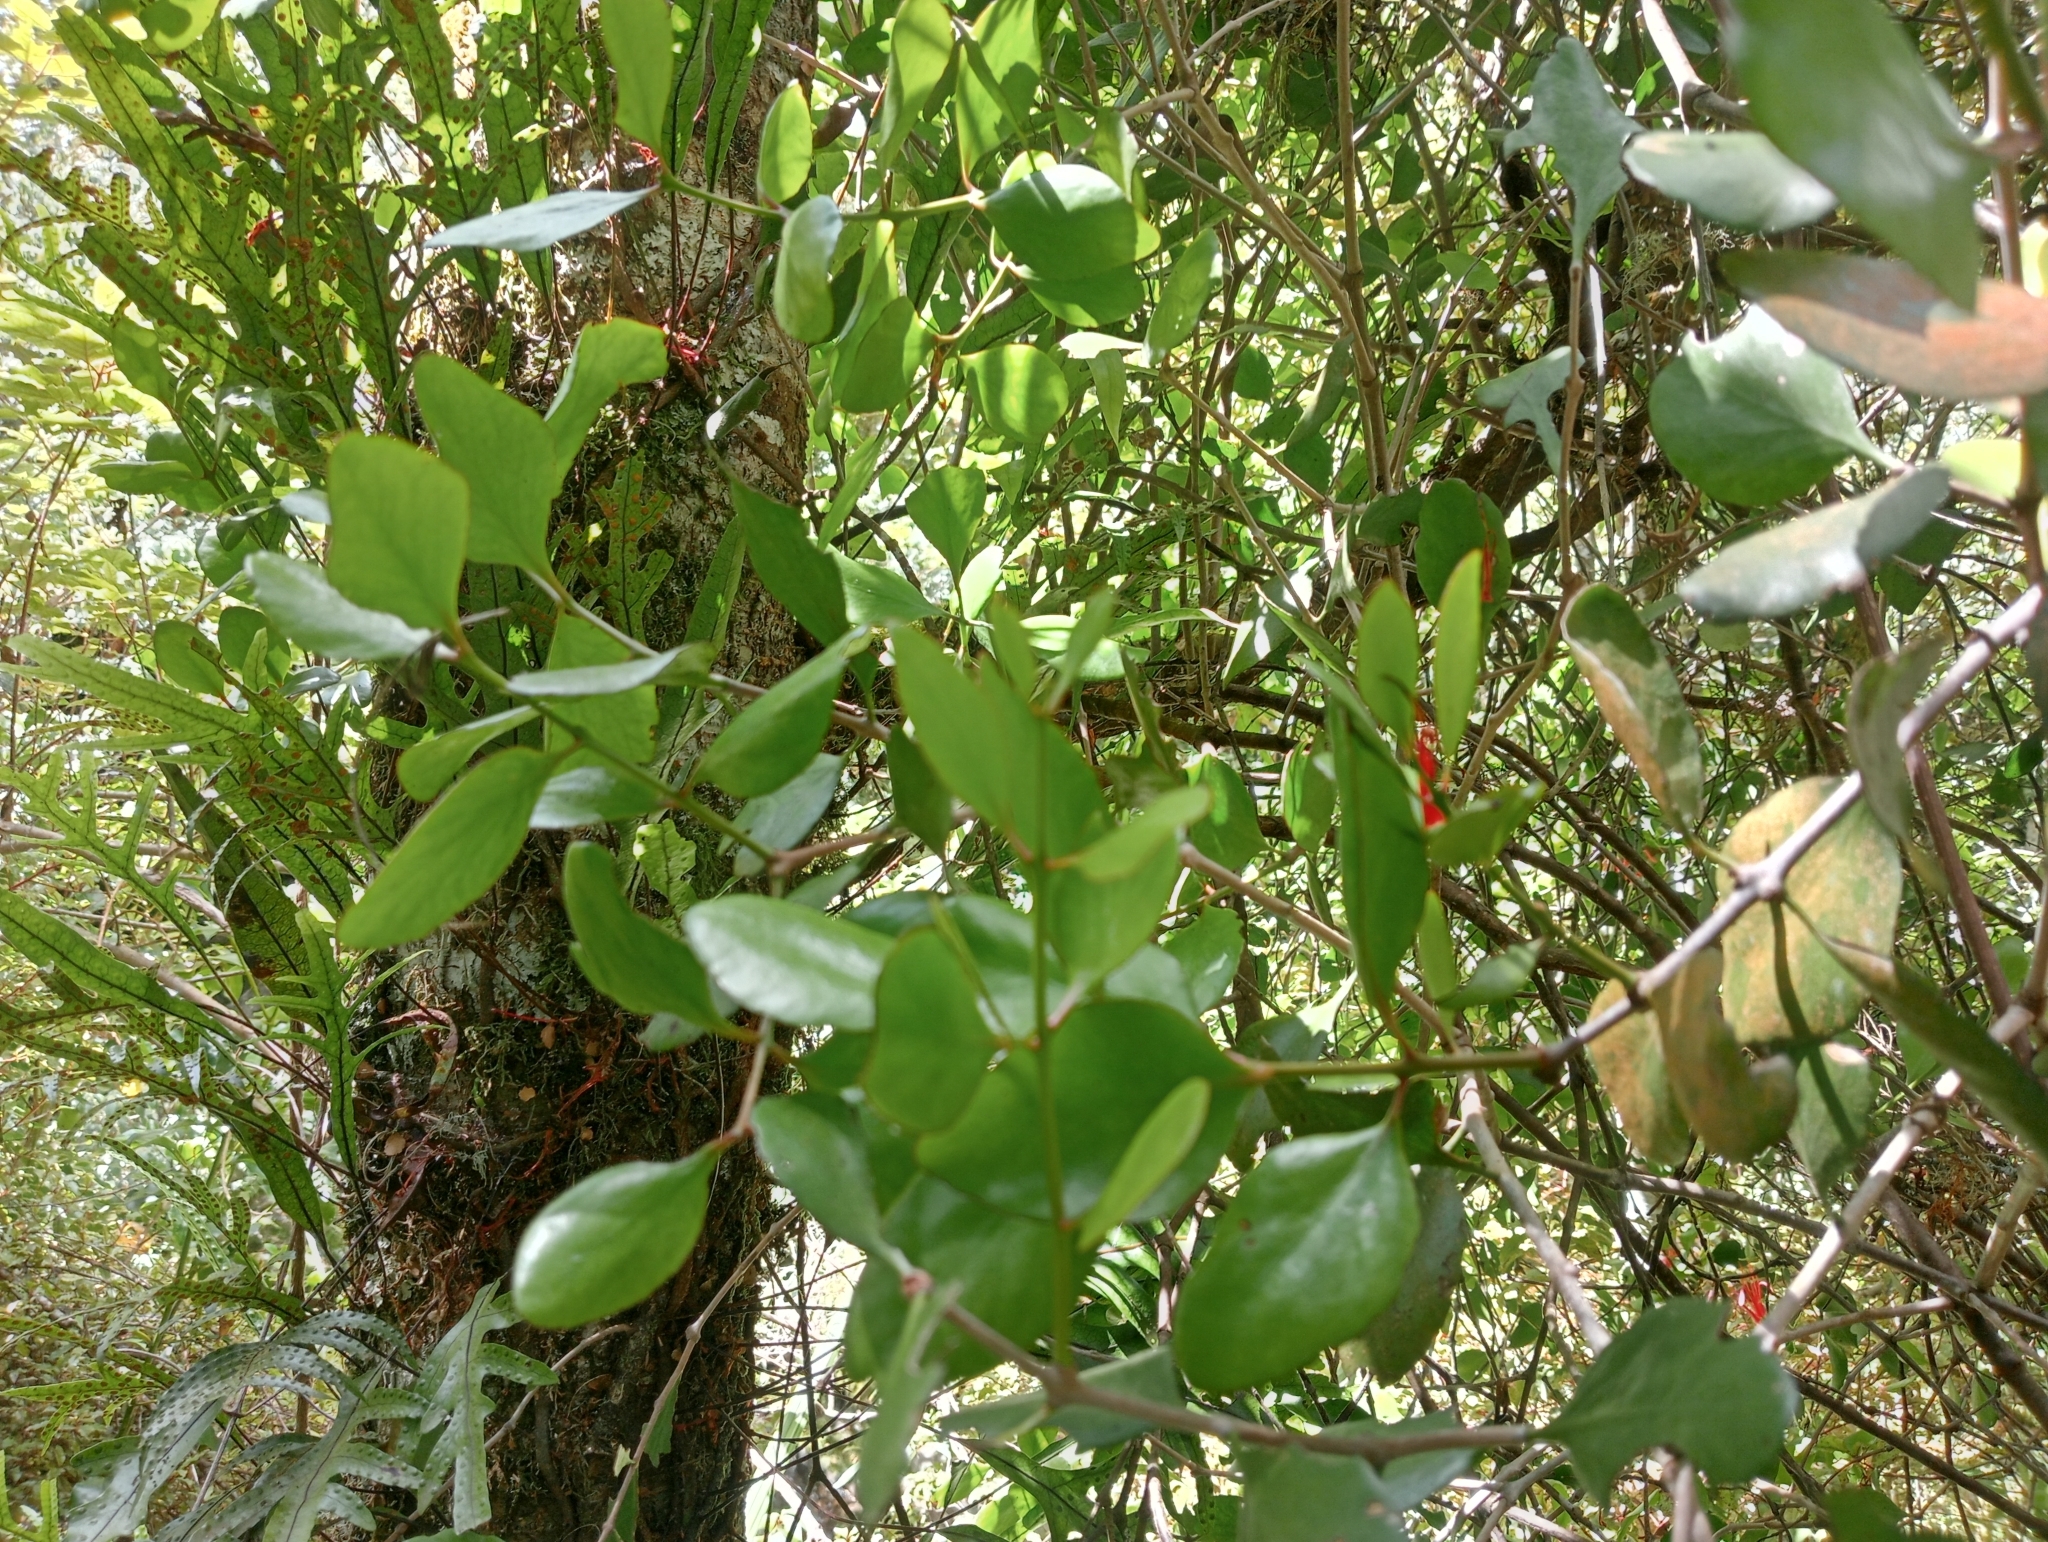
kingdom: Plantae
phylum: Tracheophyta
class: Magnoliopsida
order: Santalales
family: Loranthaceae
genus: Peraxilla
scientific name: Peraxilla colensoi
